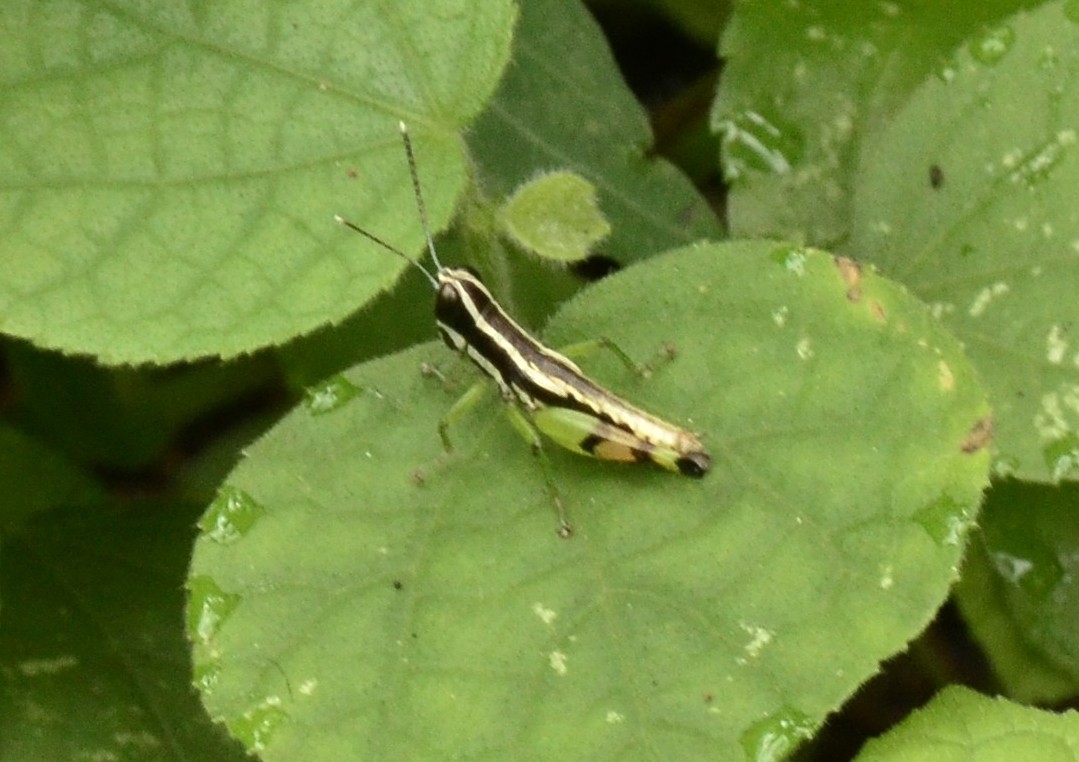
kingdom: Animalia
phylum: Arthropoda
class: Insecta
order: Orthoptera
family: Acrididae
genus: Chitaura
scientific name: Chitaura indica
